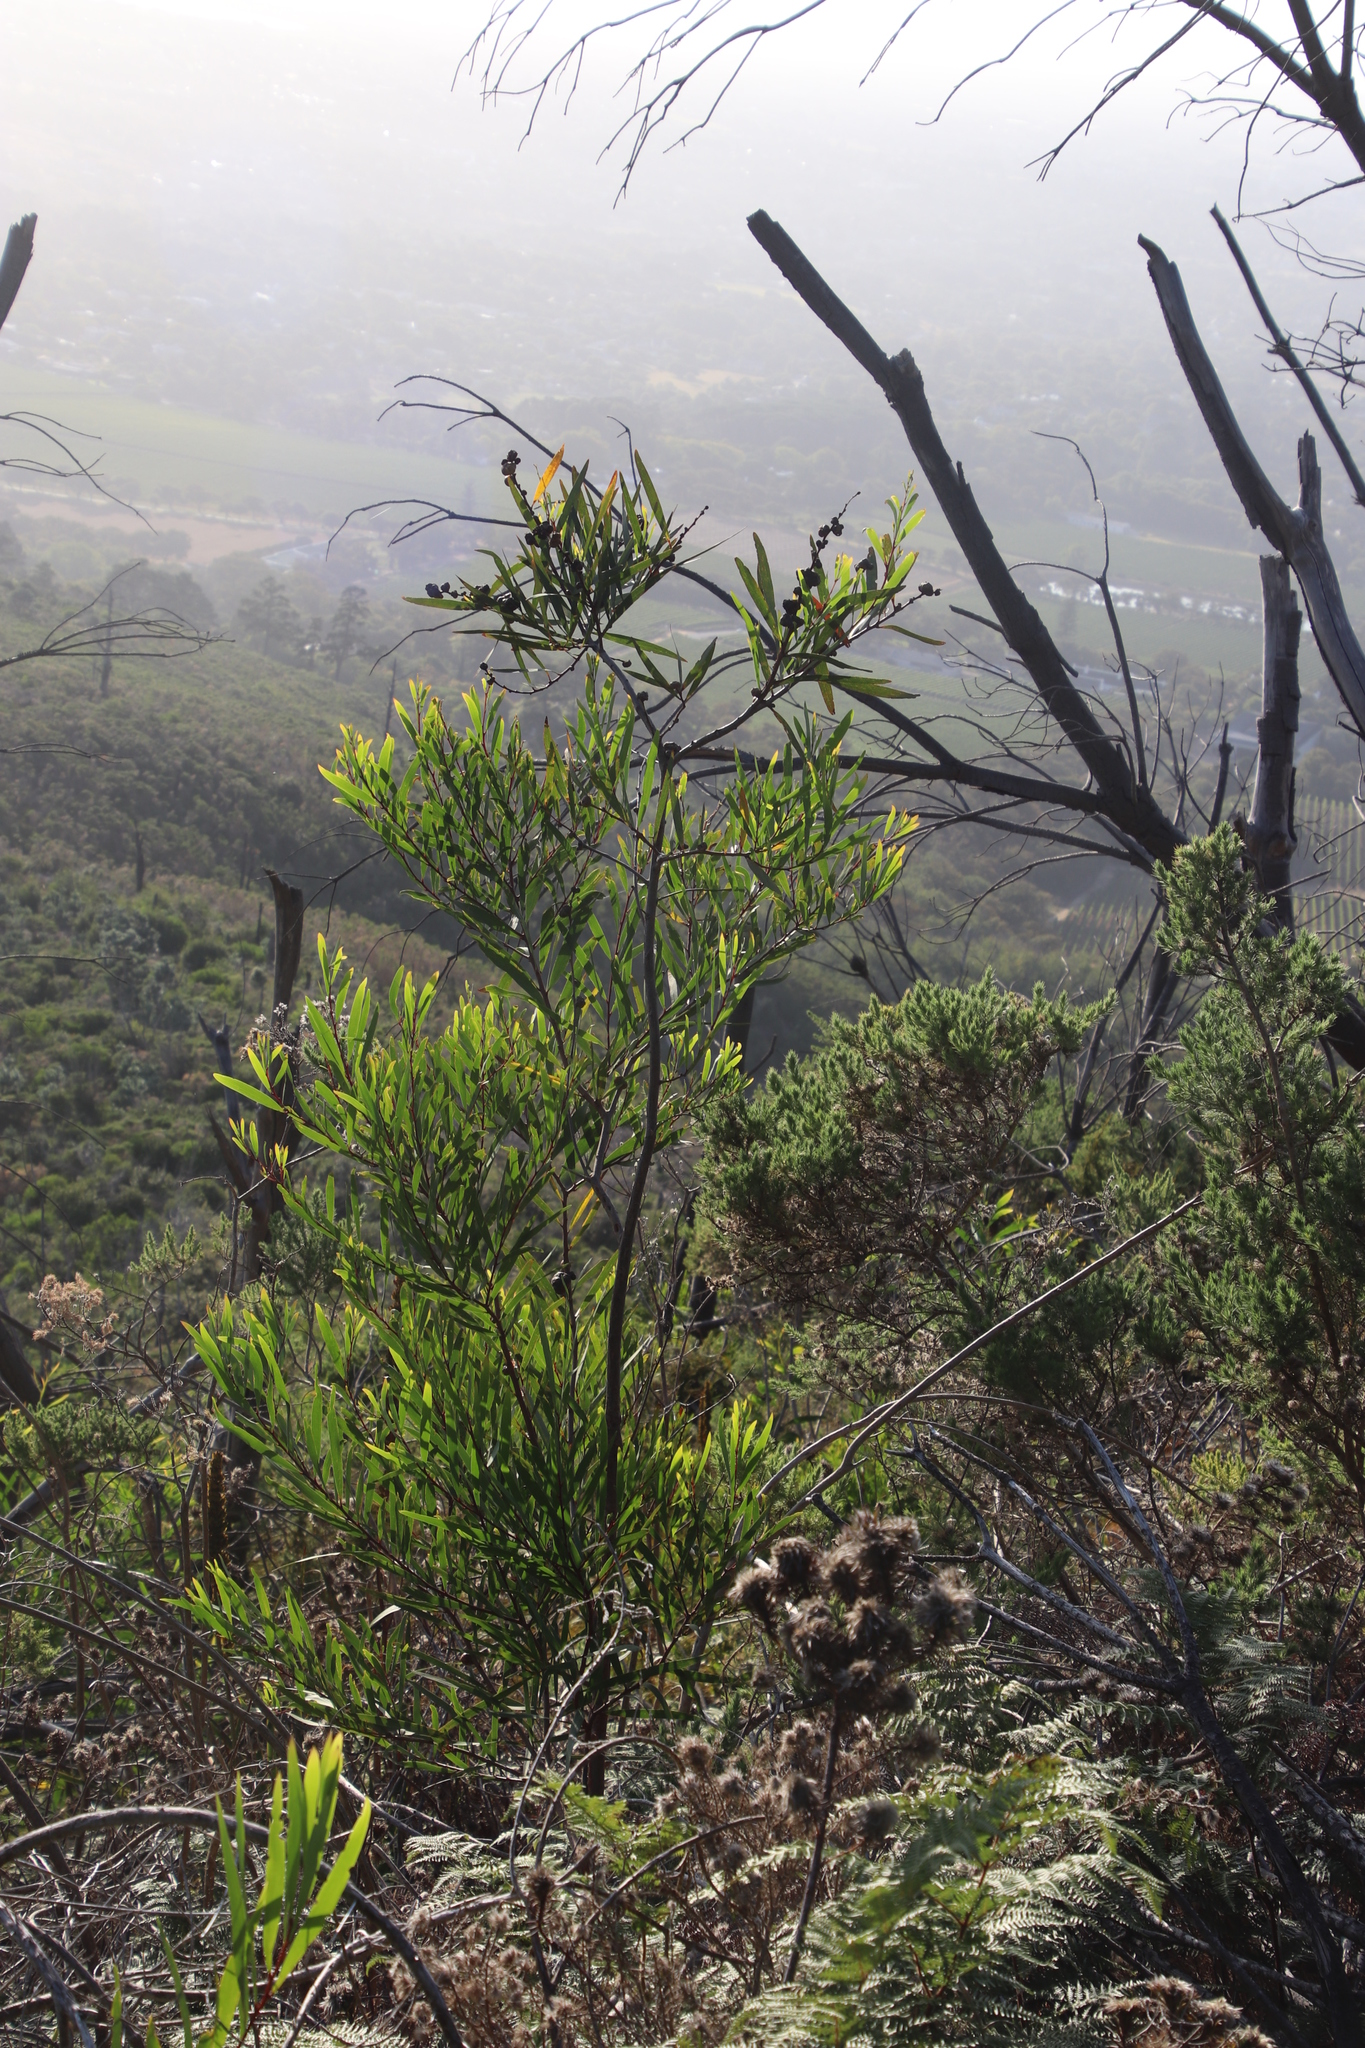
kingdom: Plantae
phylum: Tracheophyta
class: Magnoliopsida
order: Fabales
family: Fabaceae
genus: Acacia
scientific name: Acacia longifolia
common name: Sydney golden wattle
